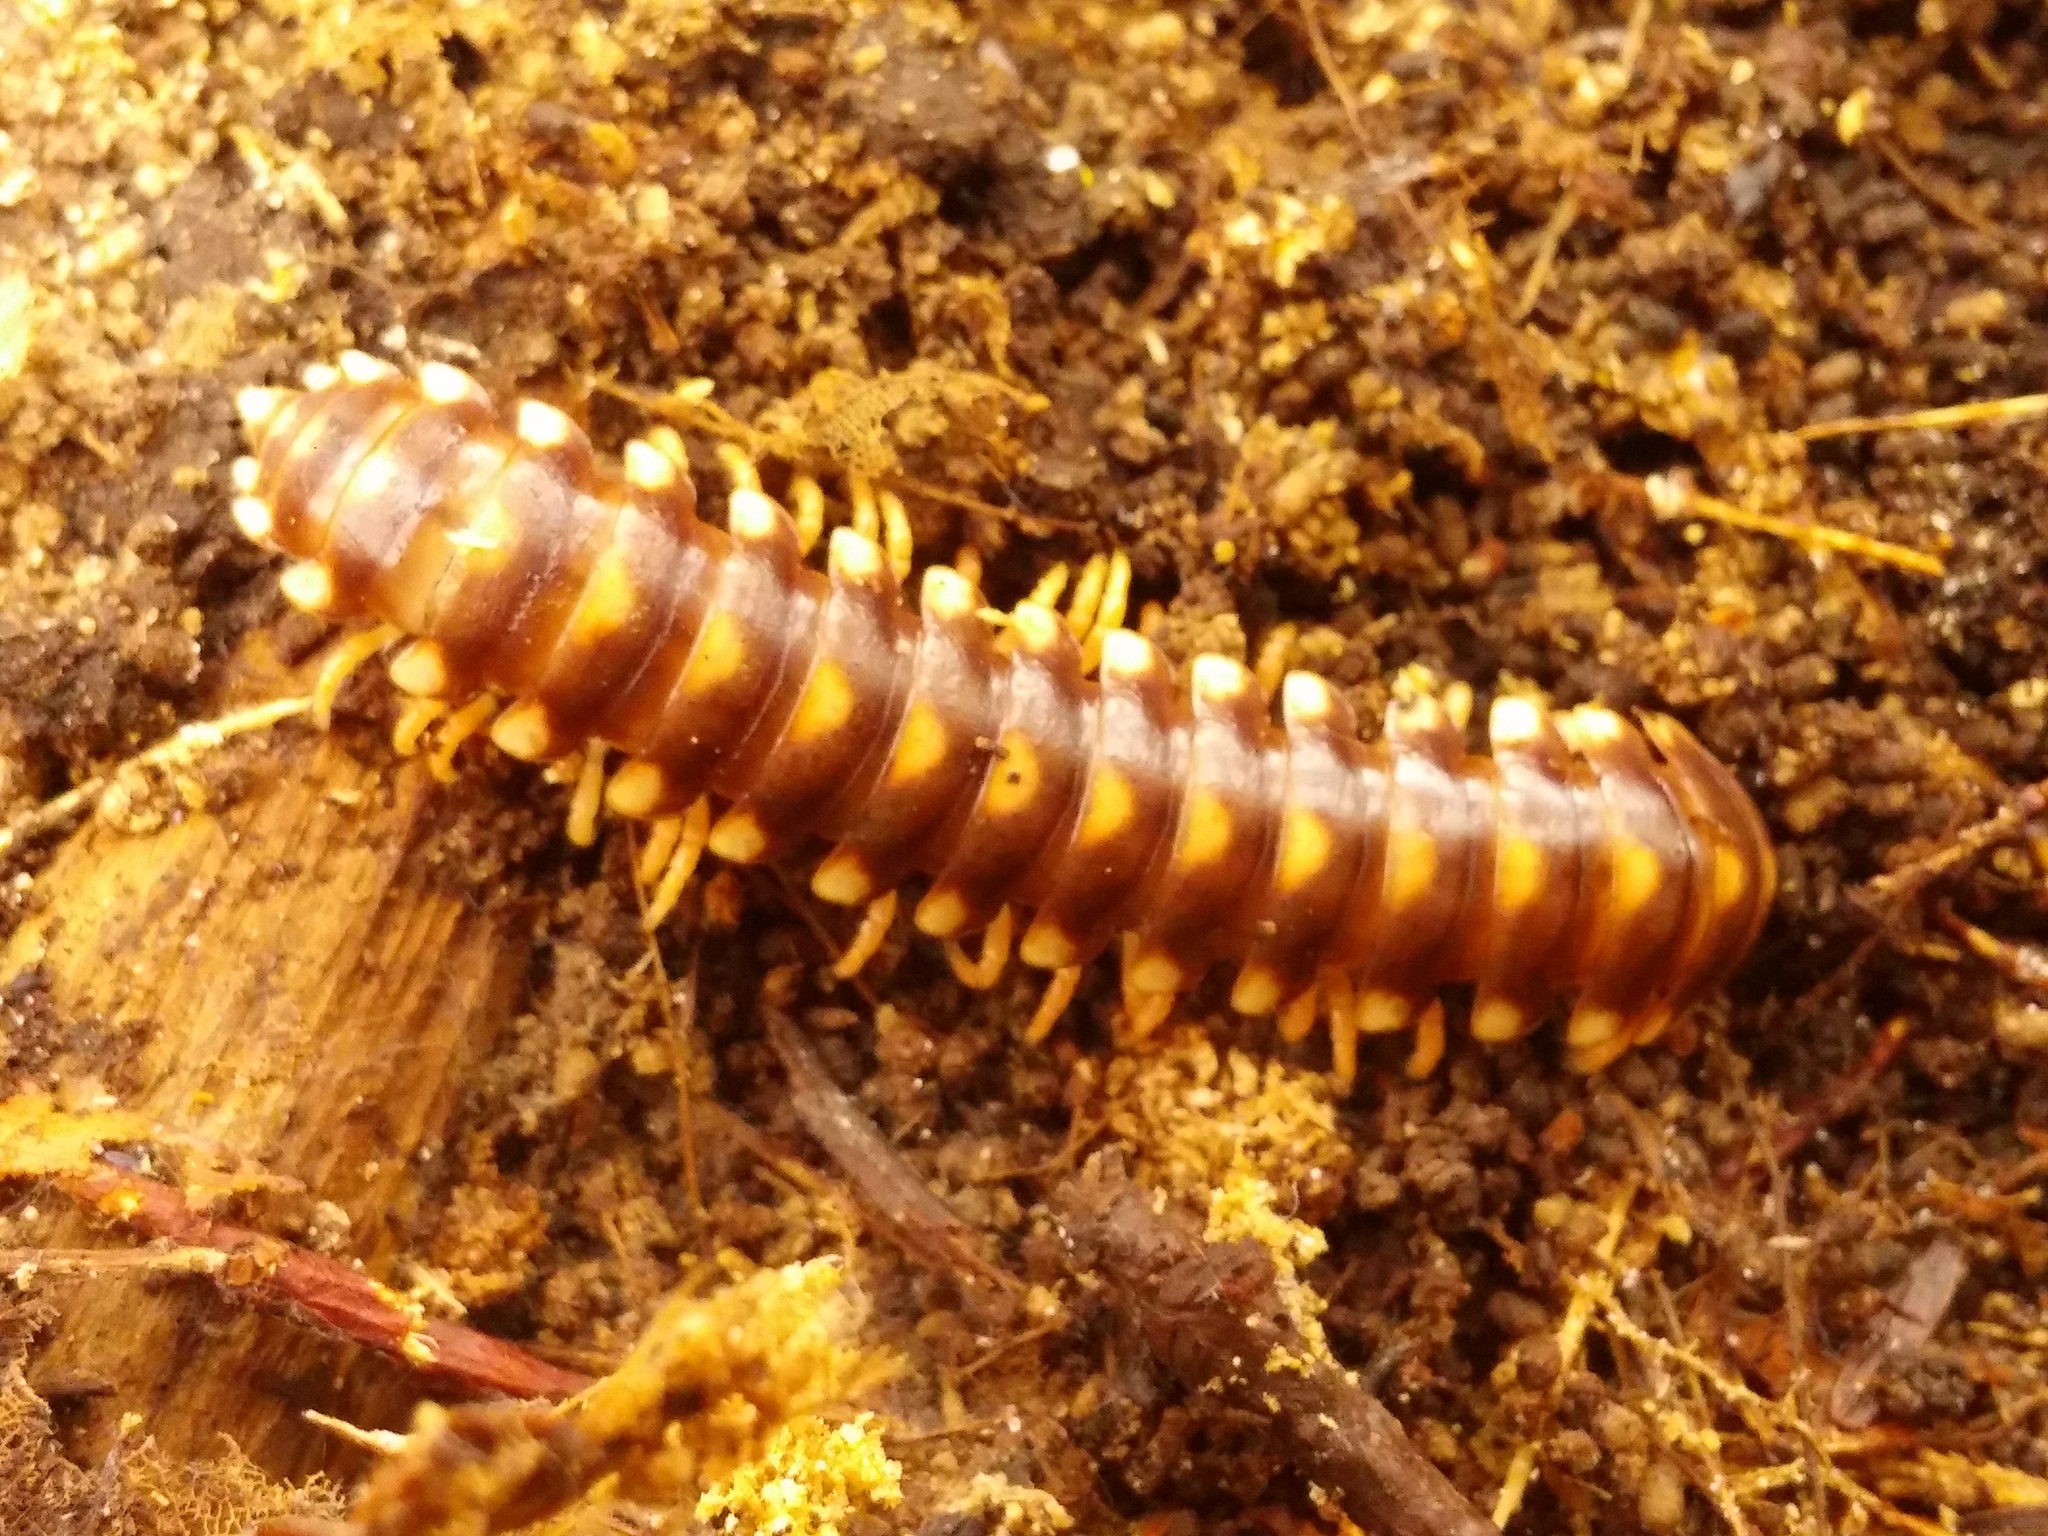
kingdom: Animalia
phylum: Arthropoda
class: Diplopoda
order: Polydesmida
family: Xystodesmidae
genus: Rudiloria
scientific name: Rudiloria trimaculata
